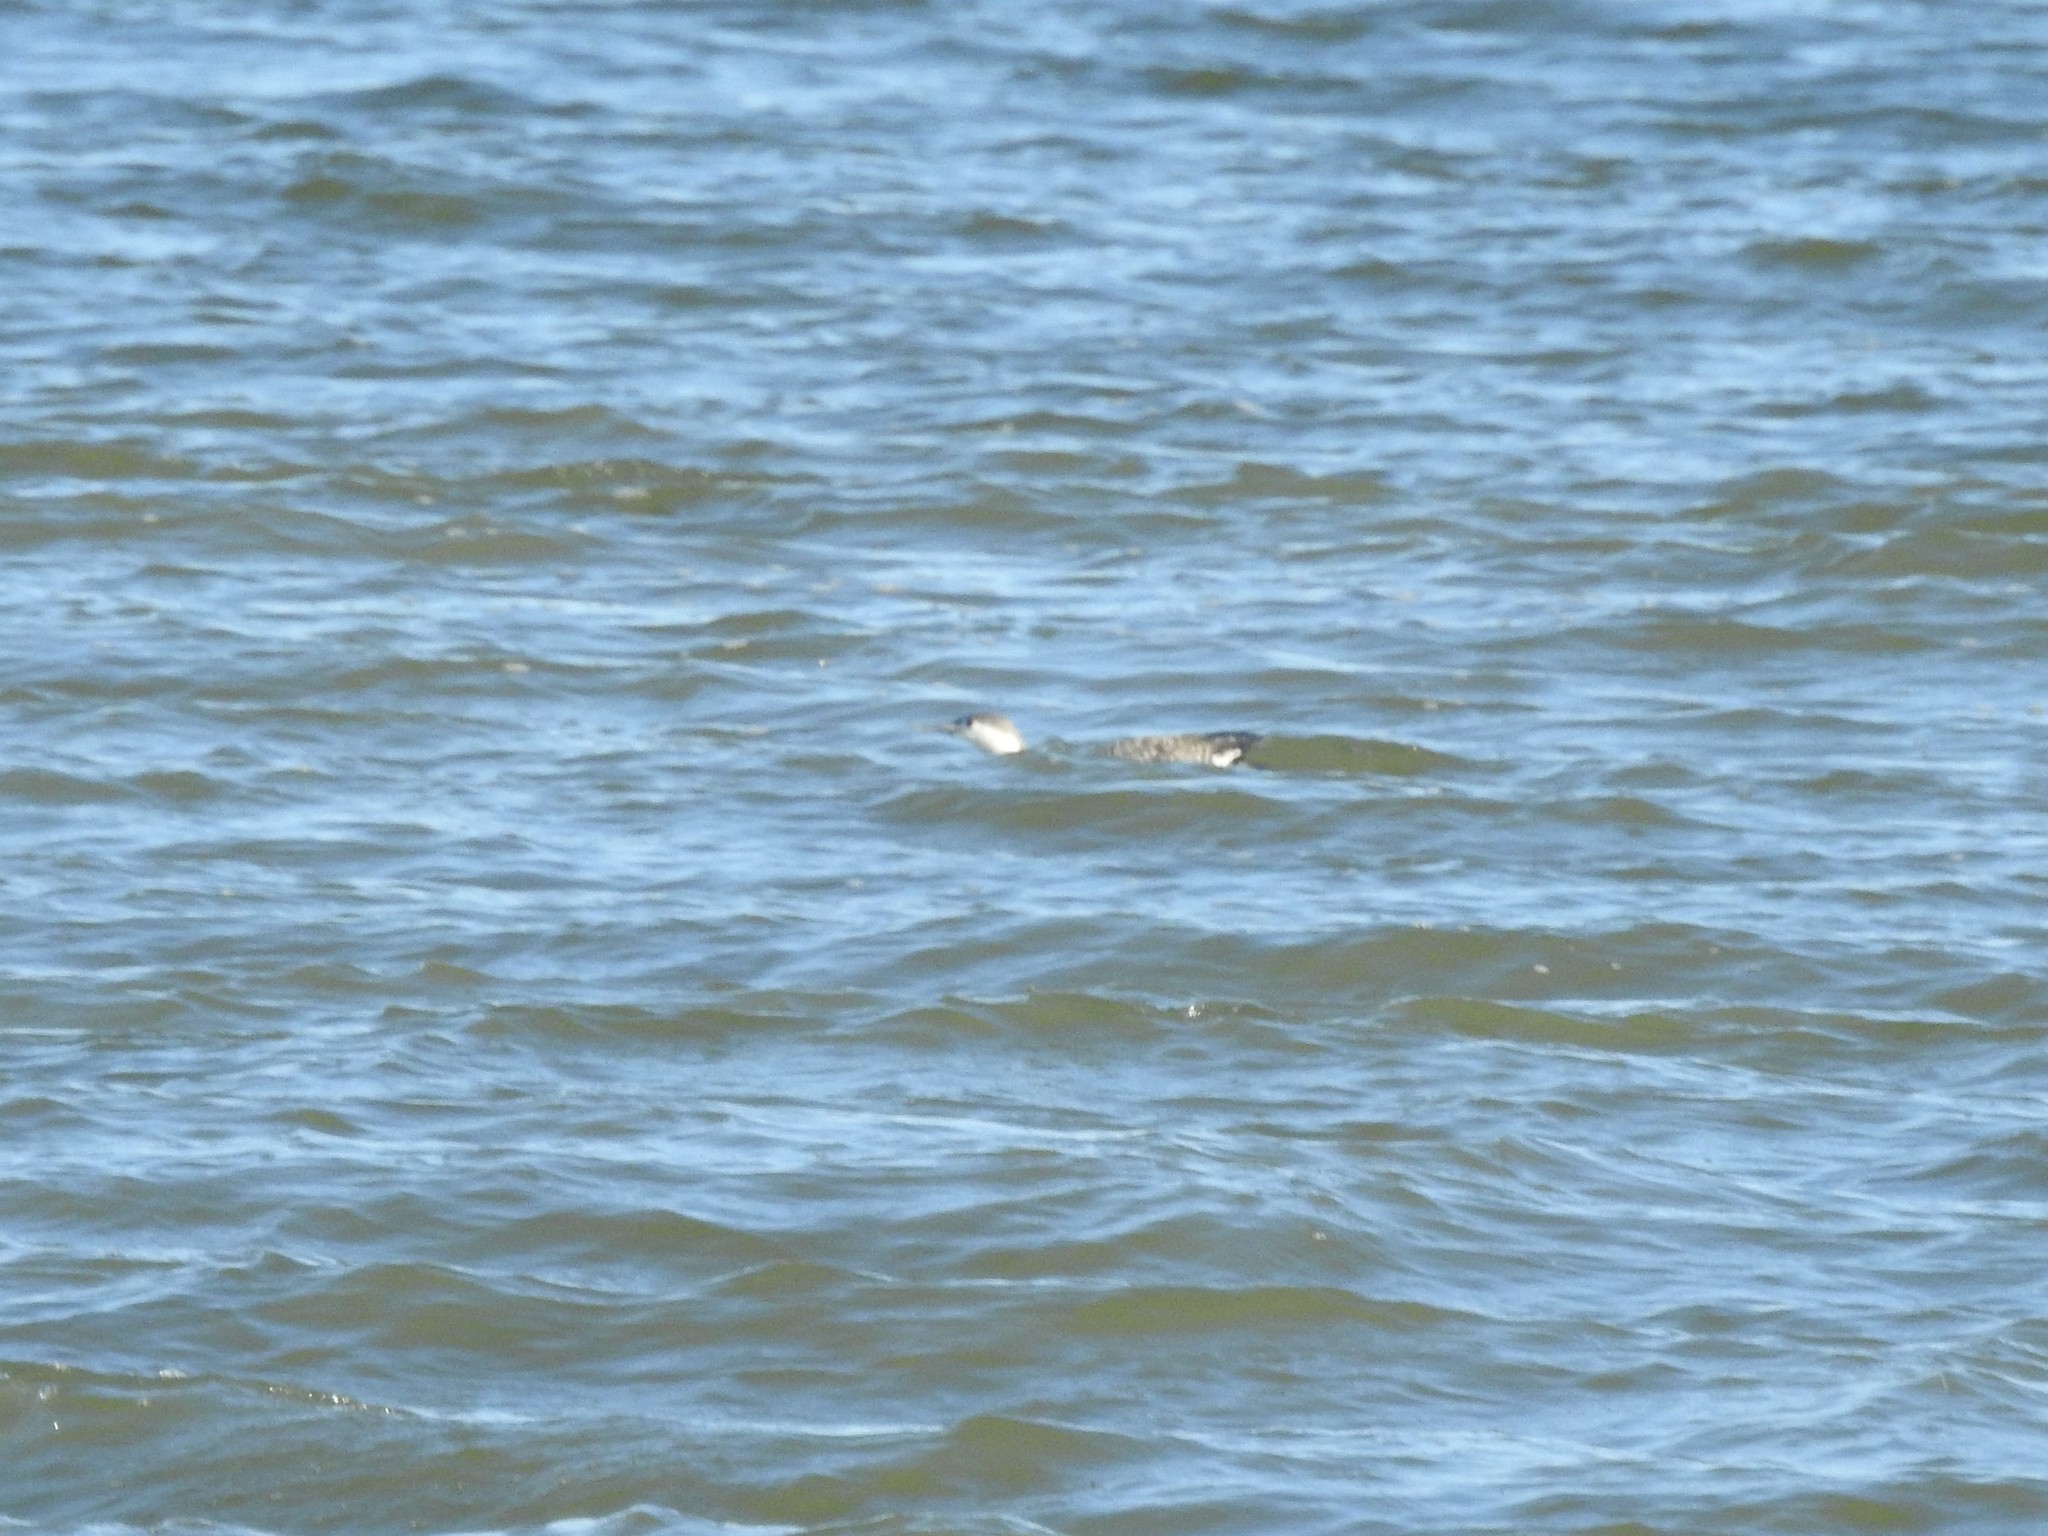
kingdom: Animalia
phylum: Chordata
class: Aves
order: Gaviiformes
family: Gaviidae
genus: Gavia
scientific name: Gavia stellata
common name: Red-throated loon
